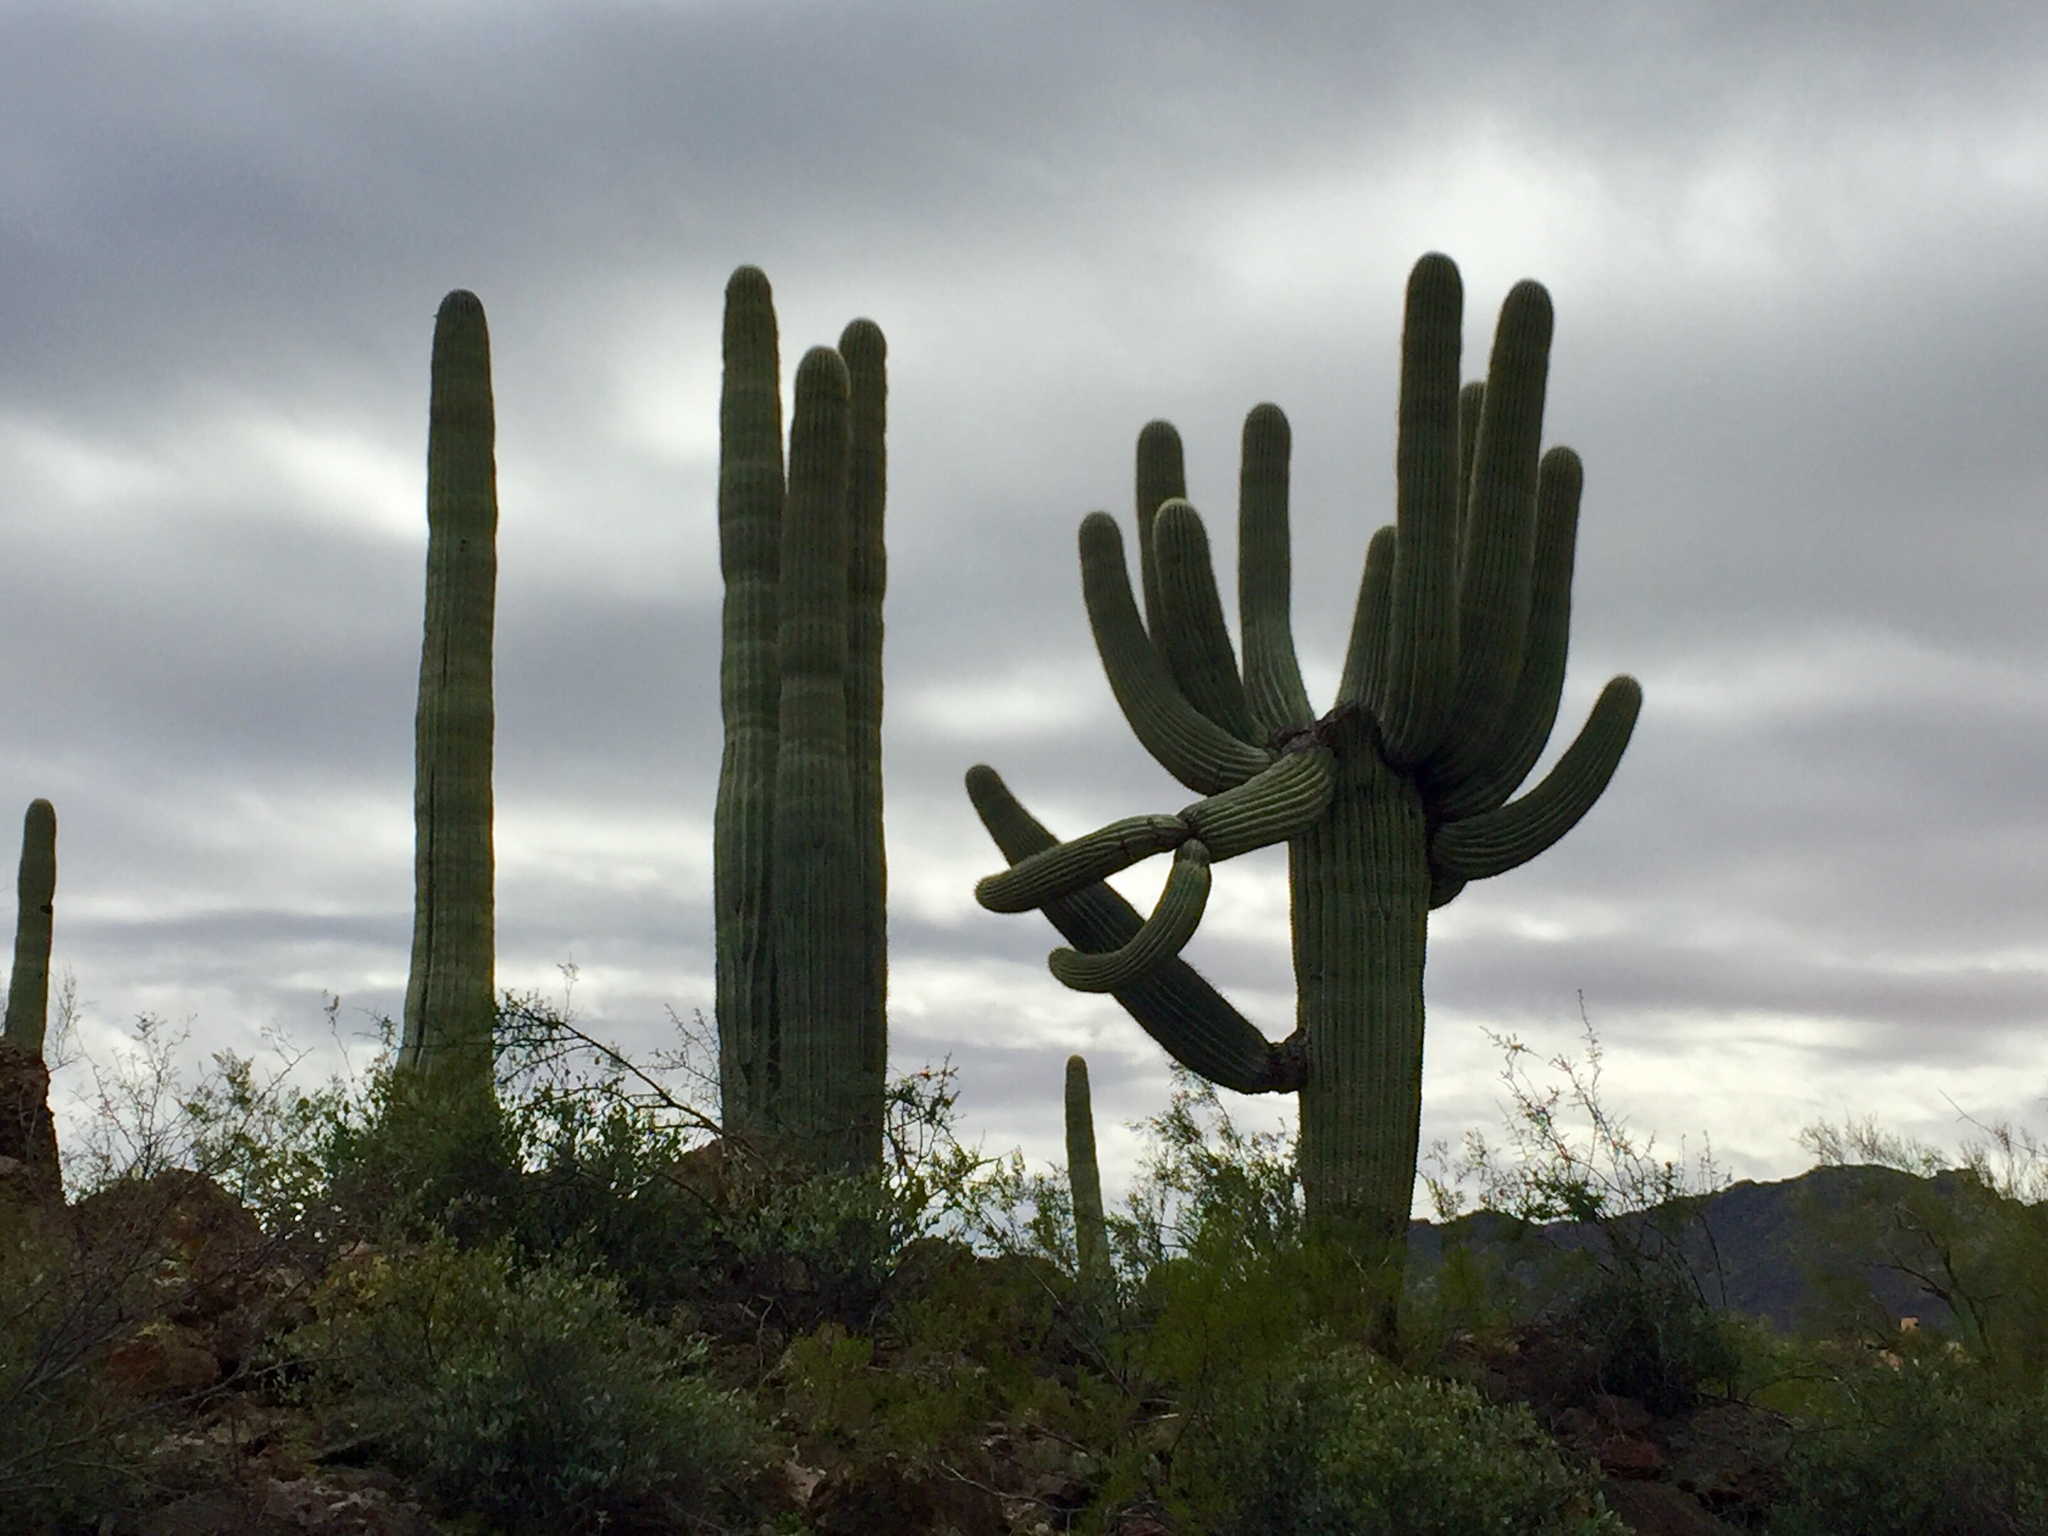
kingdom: Plantae
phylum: Tracheophyta
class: Magnoliopsida
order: Caryophyllales
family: Cactaceae
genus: Carnegiea
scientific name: Carnegiea gigantea
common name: Saguaro
